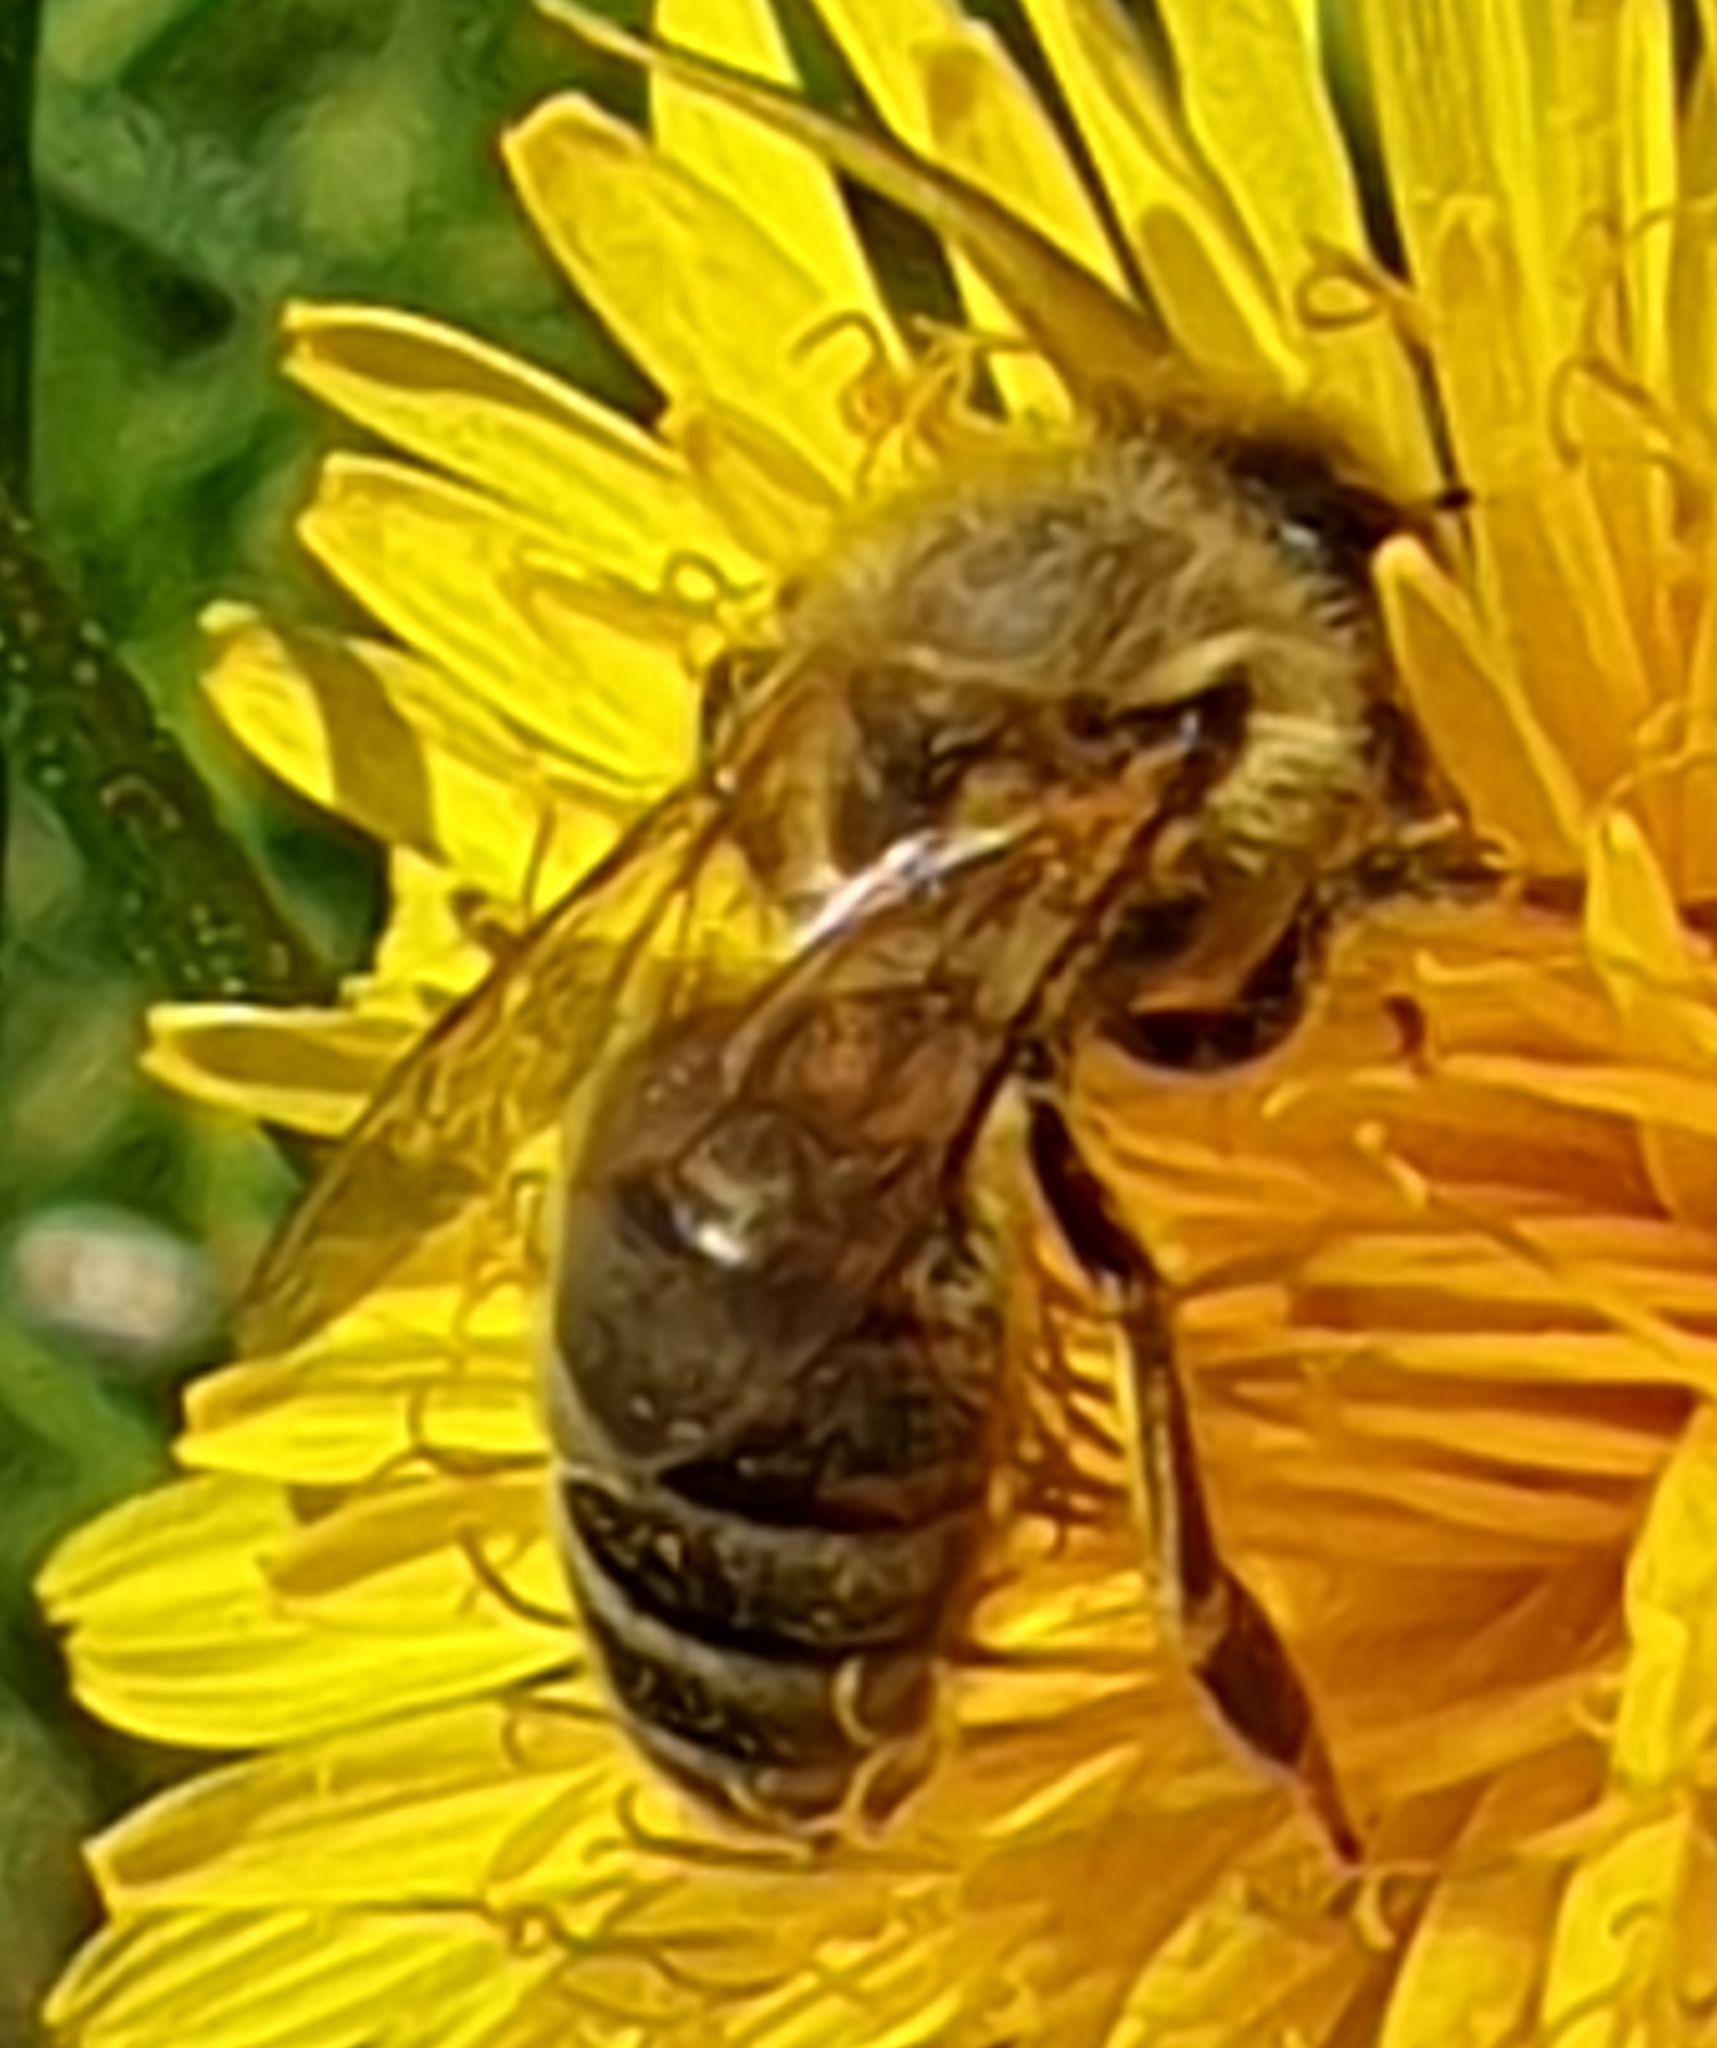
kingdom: Animalia
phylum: Arthropoda
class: Insecta
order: Hymenoptera
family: Apidae
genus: Apis
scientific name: Apis mellifera
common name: Honey bee
